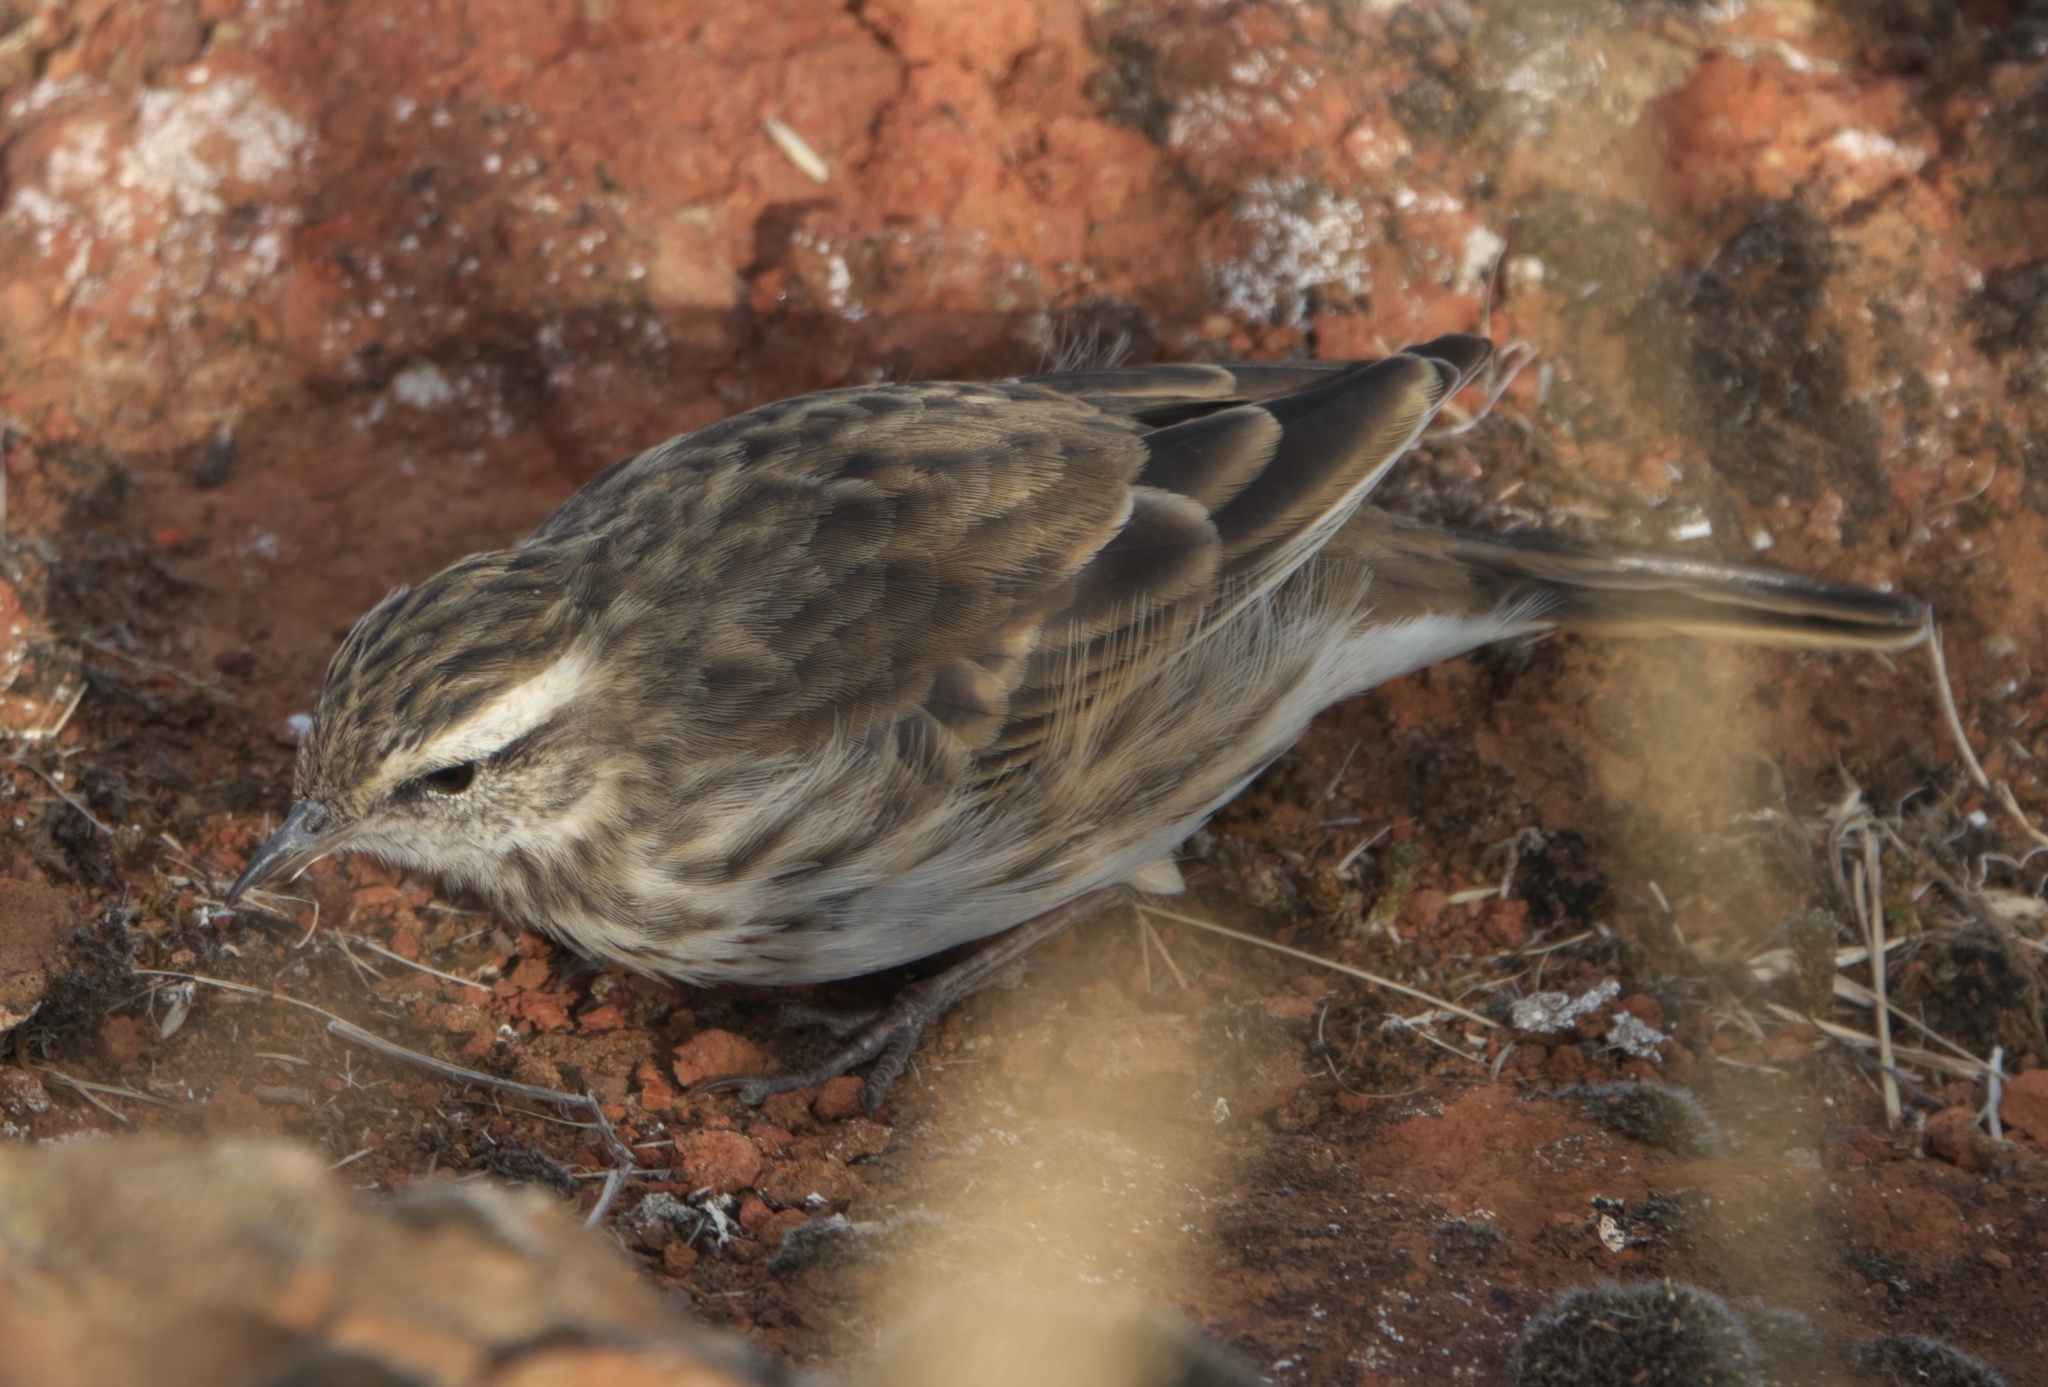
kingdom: Animalia
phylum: Chordata
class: Aves
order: Passeriformes
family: Motacillidae
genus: Anthus
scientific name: Anthus novaeseelandiae
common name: New zealand pipit
